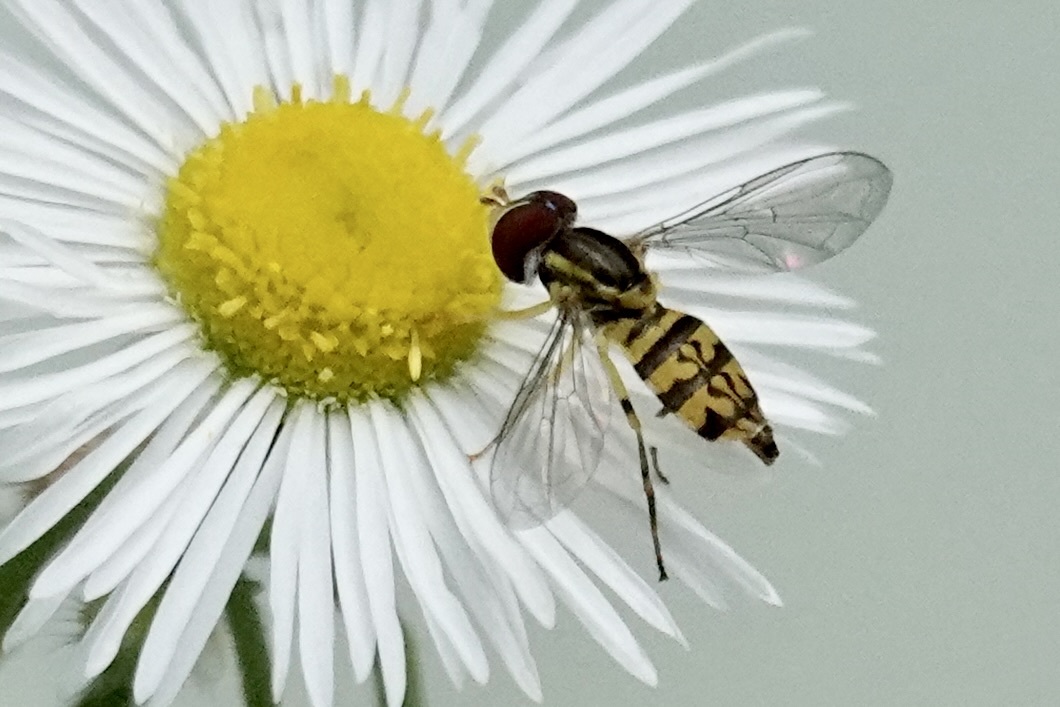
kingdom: Animalia
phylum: Arthropoda
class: Insecta
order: Diptera
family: Syrphidae
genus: Toxomerus
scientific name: Toxomerus geminatus
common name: Eastern calligrapher
